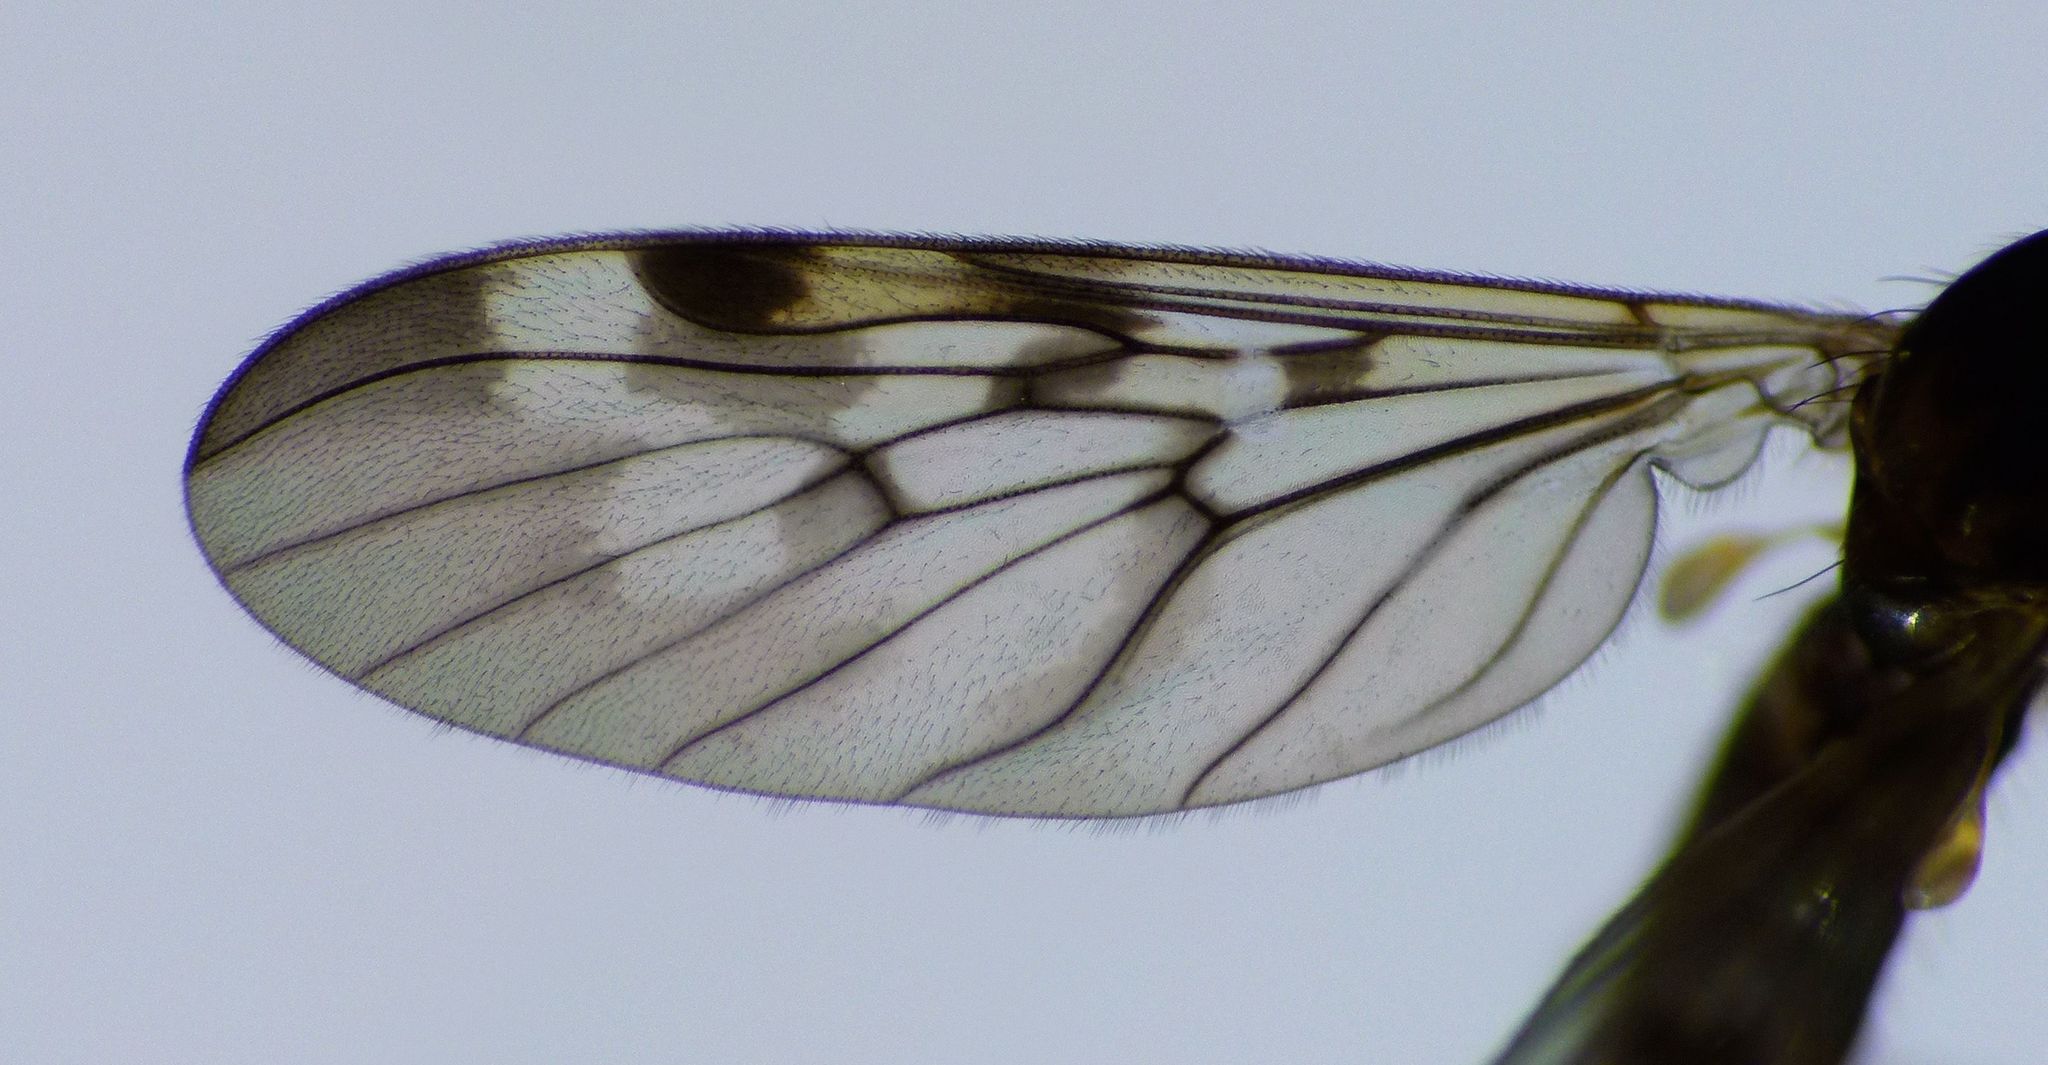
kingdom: Animalia
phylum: Arthropoda
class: Insecta
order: Diptera
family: Anisopodidae
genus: Sylvicola
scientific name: Sylvicola undulatus
